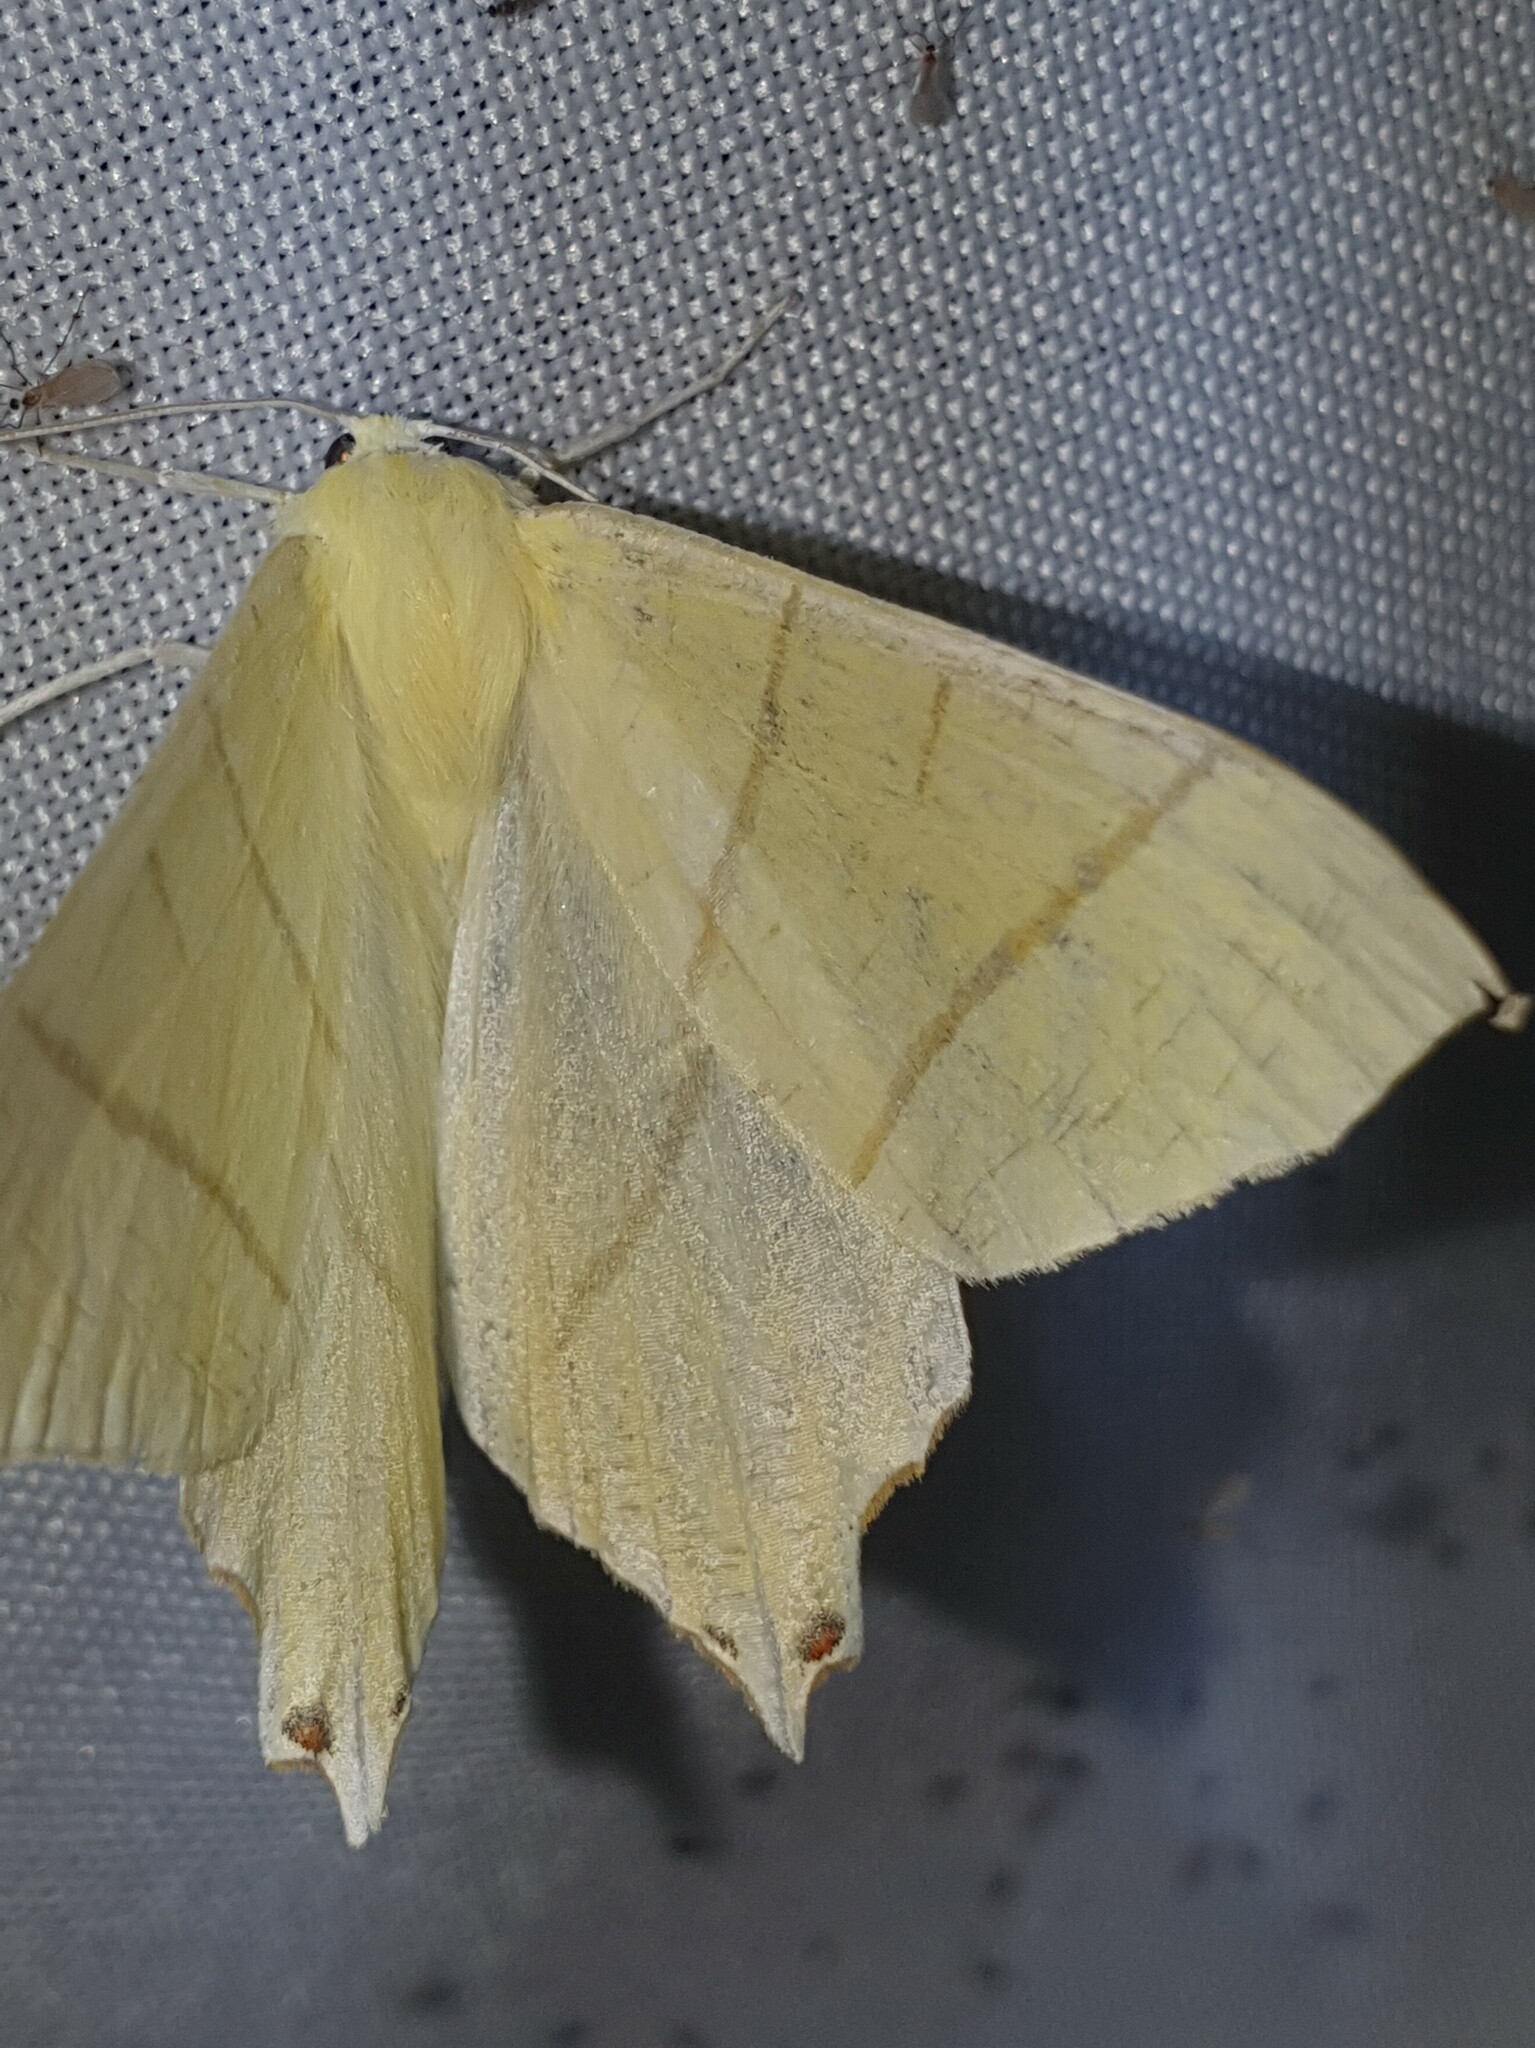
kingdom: Animalia
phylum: Arthropoda
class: Insecta
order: Lepidoptera
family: Geometridae
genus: Ourapteryx
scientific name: Ourapteryx sambucaria
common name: Swallow-tailed moth
